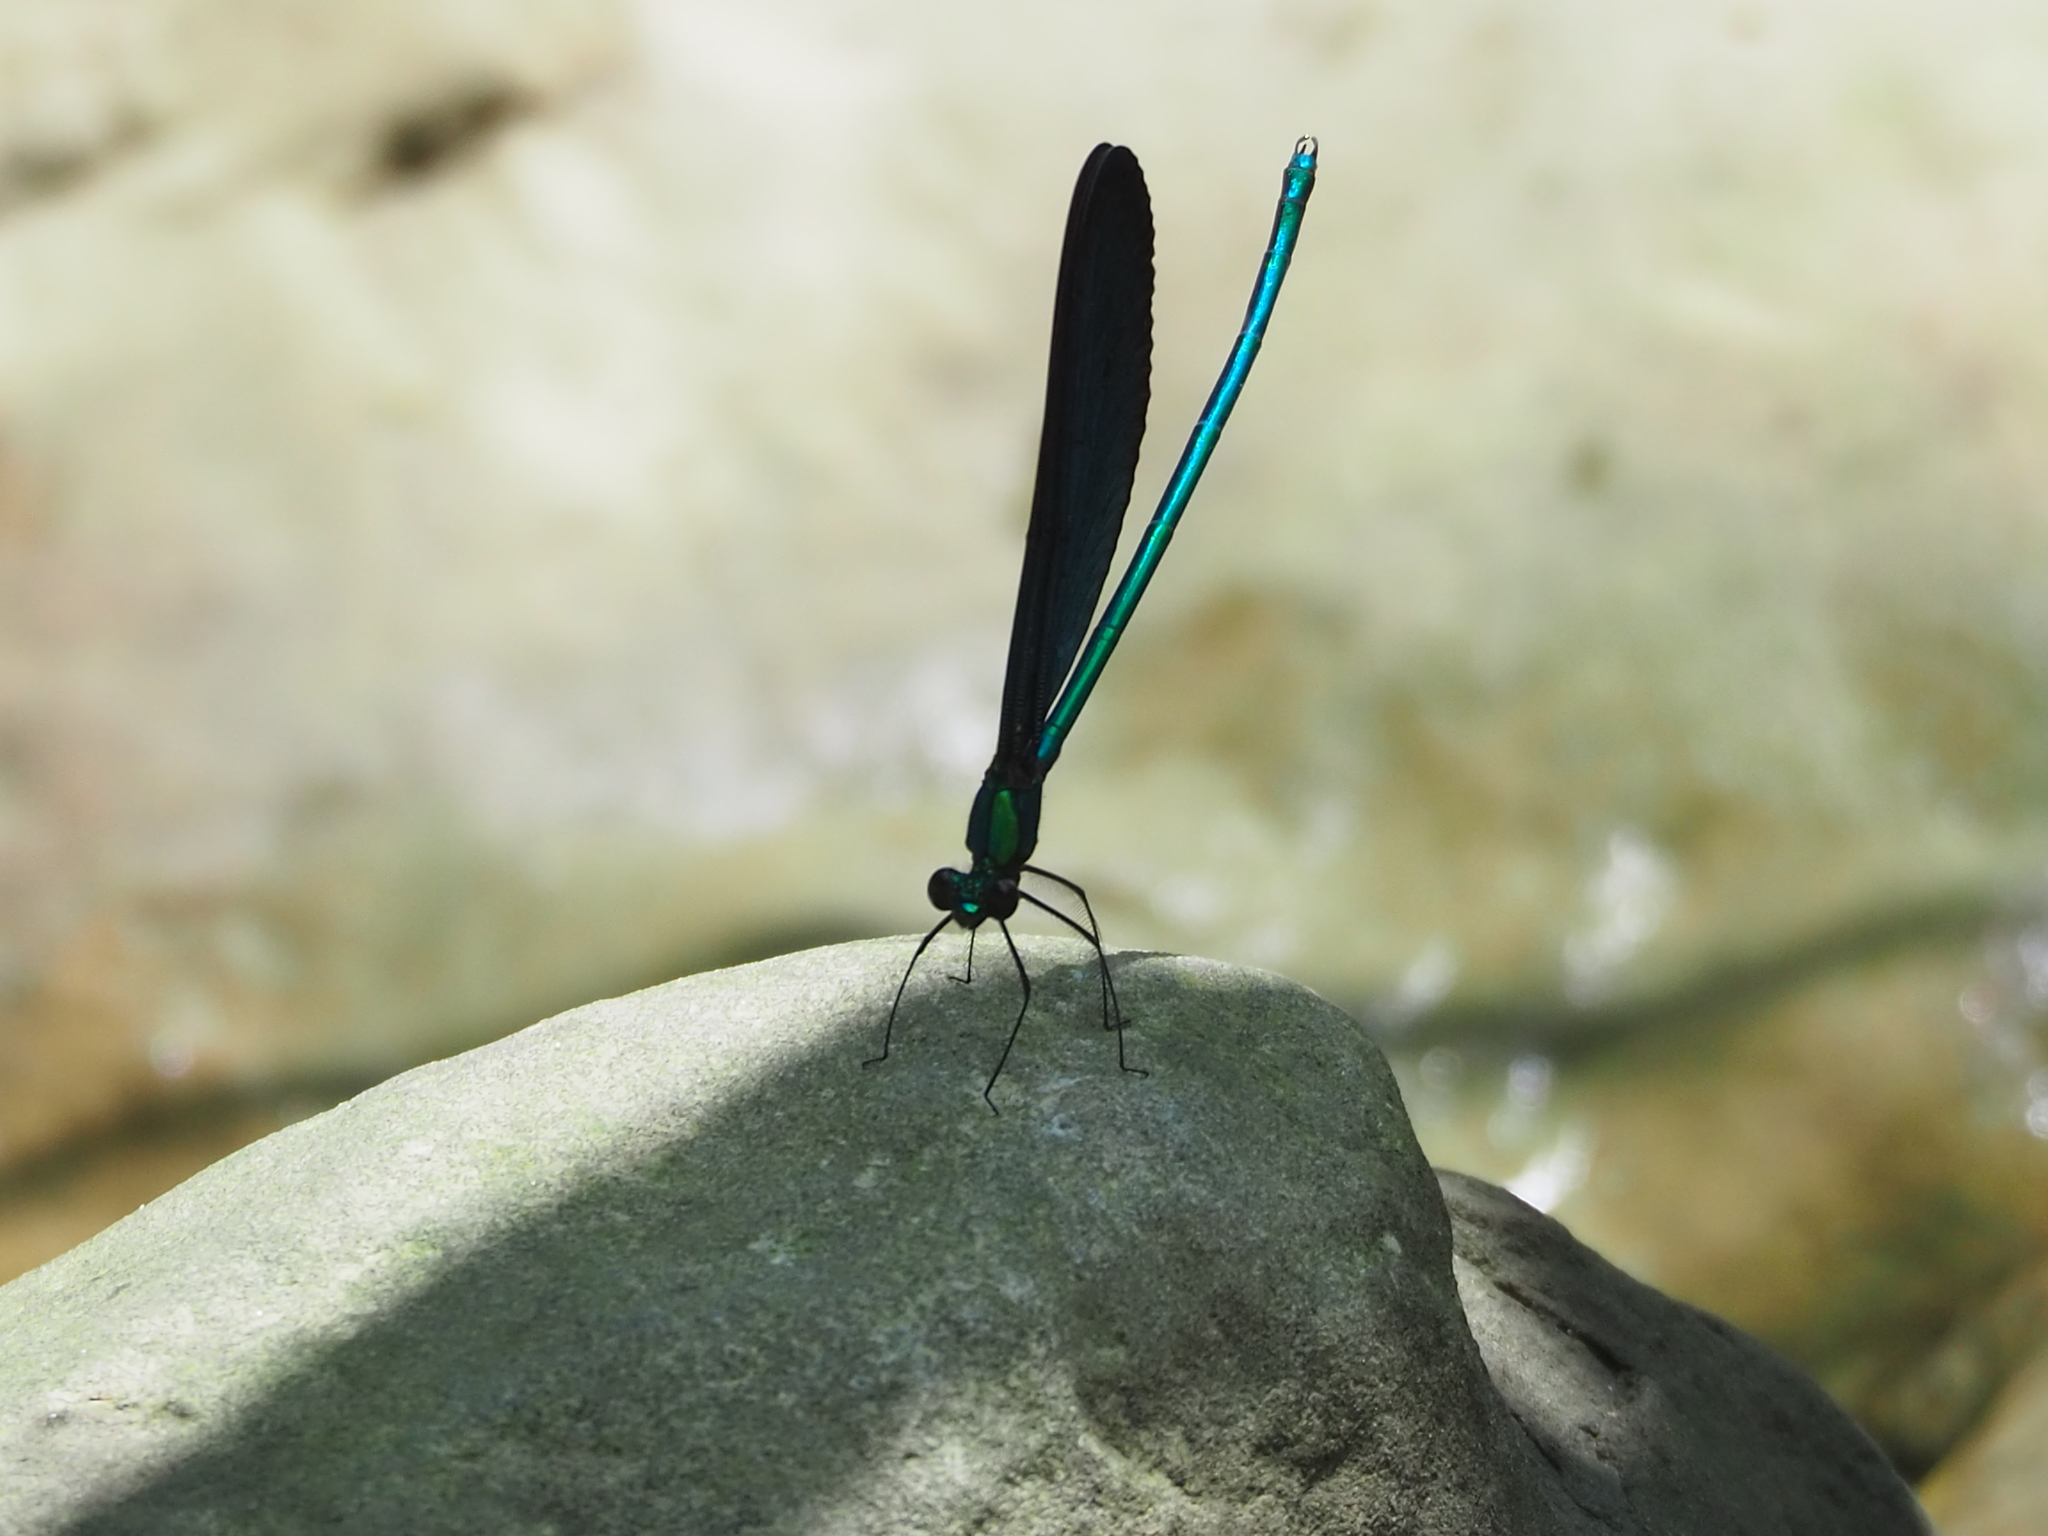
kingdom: Animalia
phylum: Arthropoda
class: Insecta
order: Odonata
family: Calopterygidae
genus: Matrona
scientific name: Matrona cyanoptera
